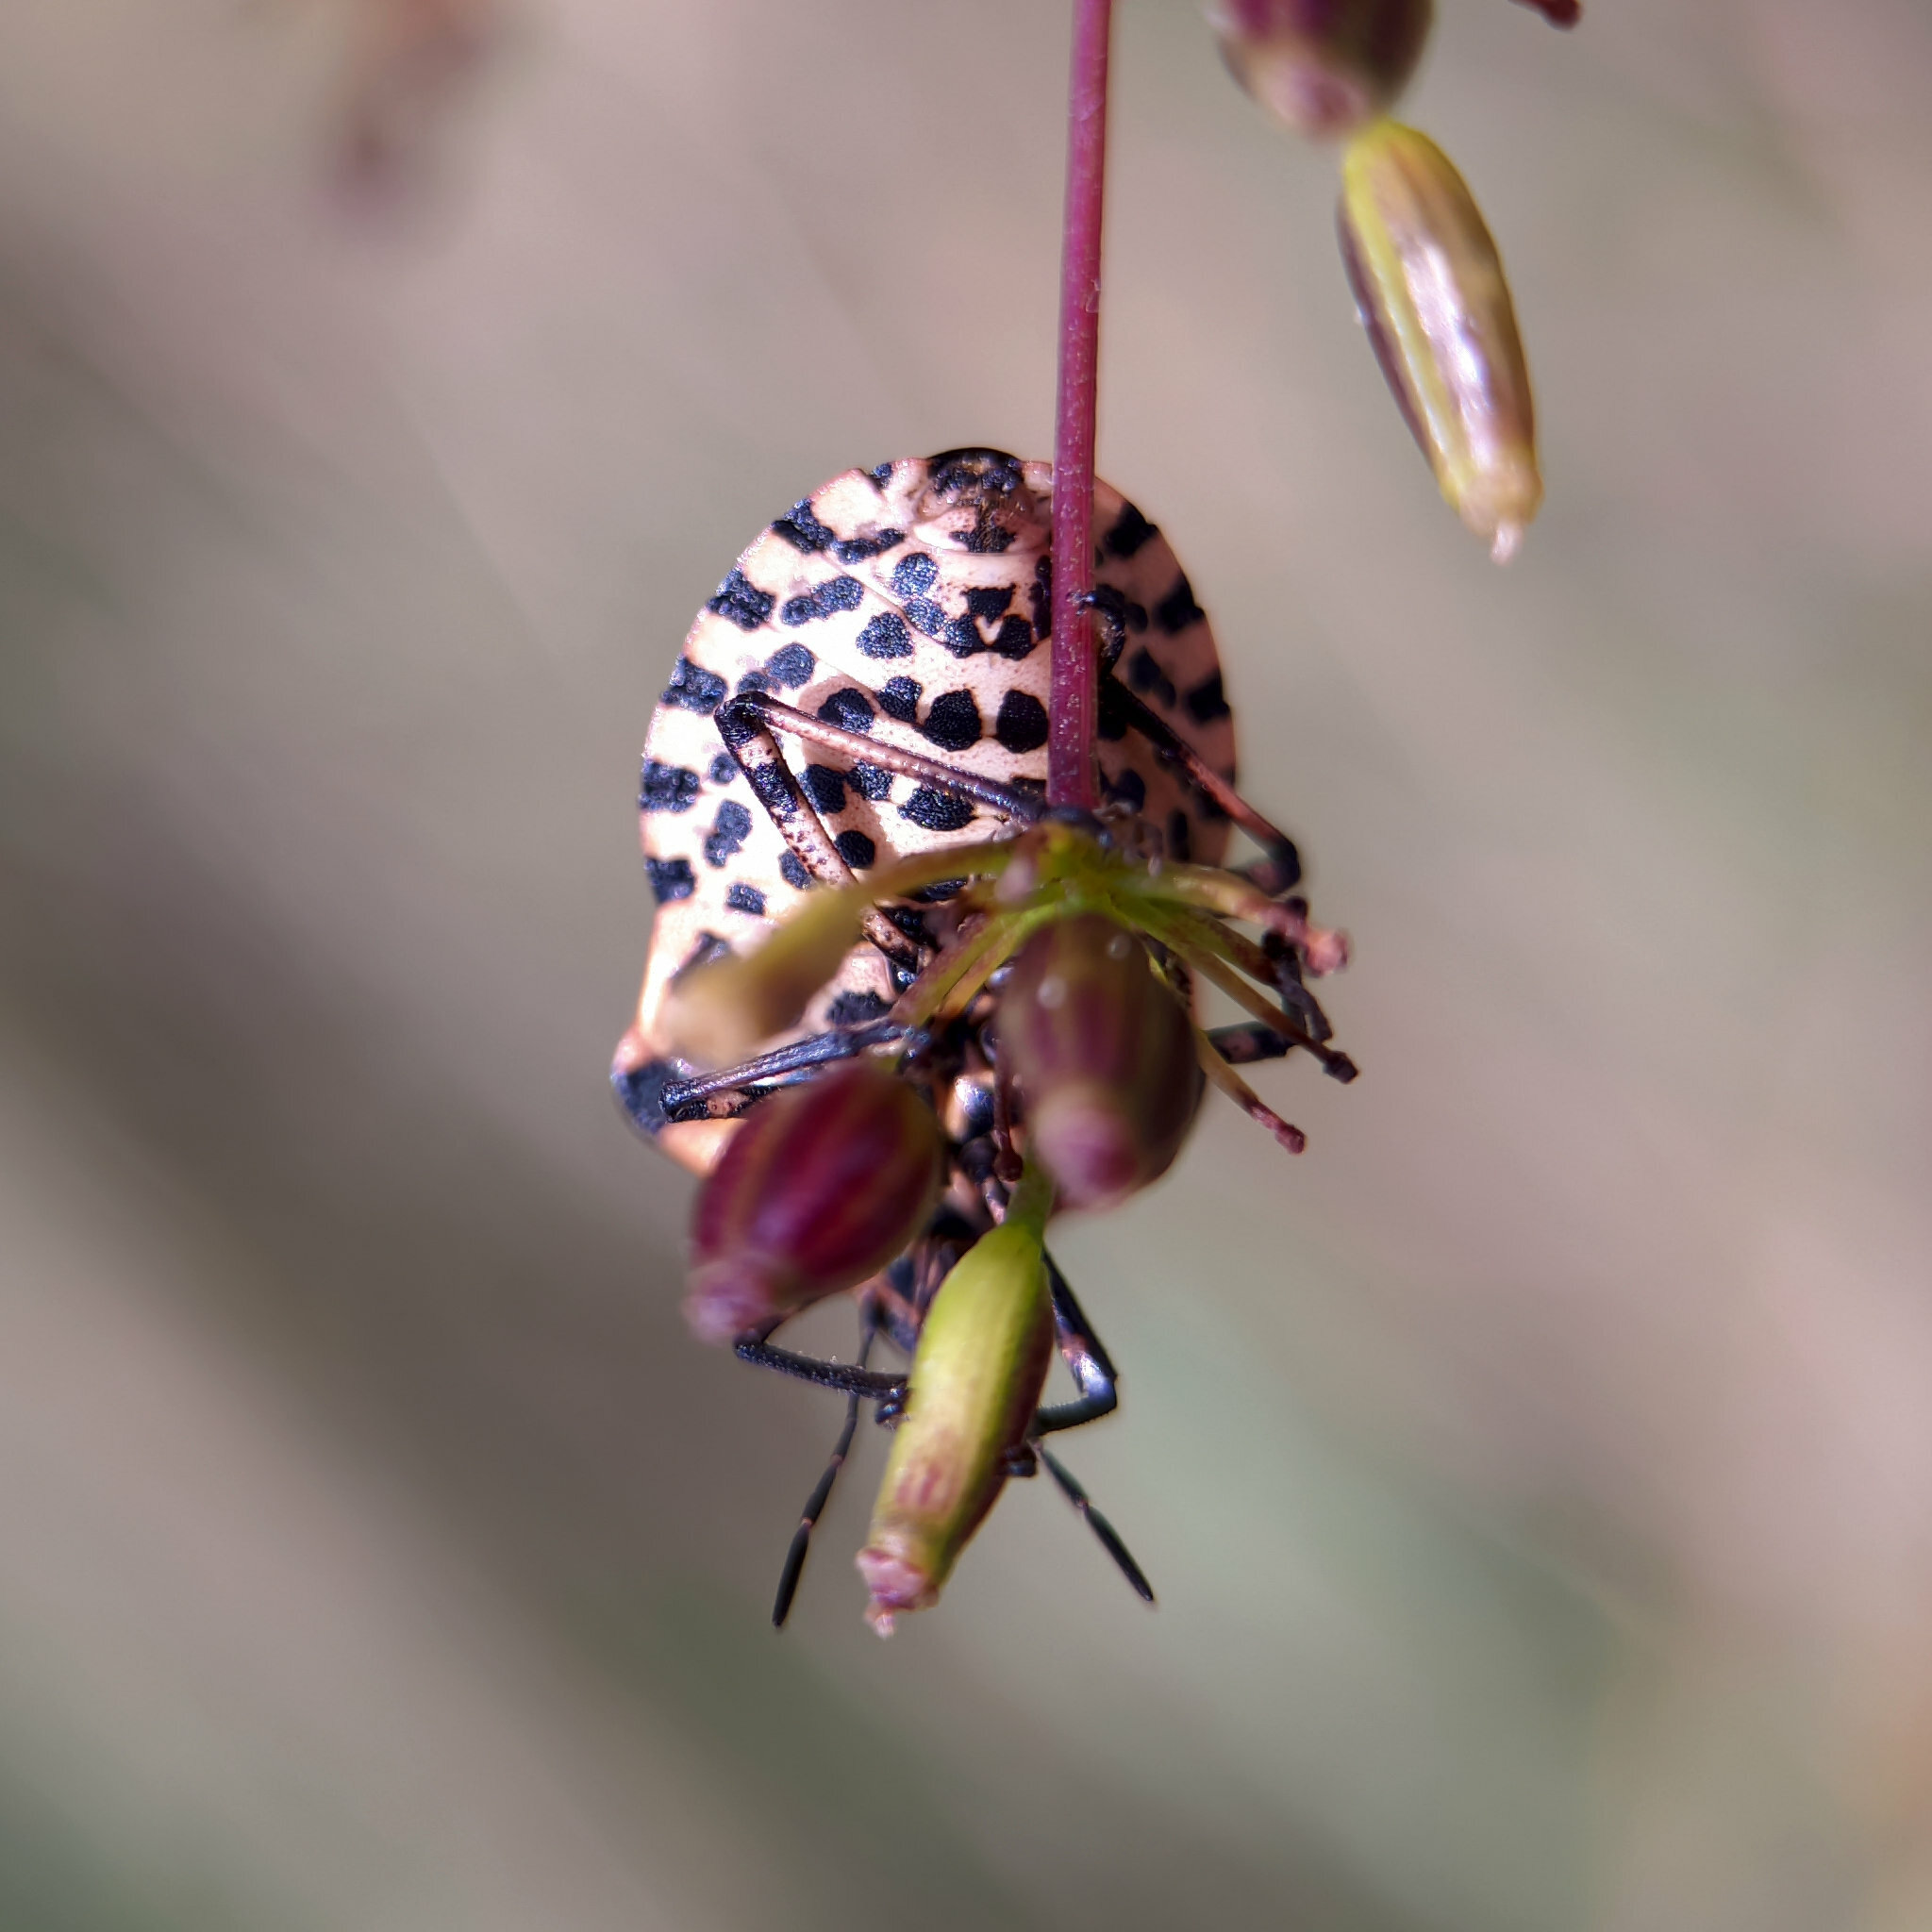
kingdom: Animalia
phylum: Arthropoda
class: Insecta
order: Hemiptera
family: Pentatomidae
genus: Graphosoma
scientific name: Graphosoma italicum
